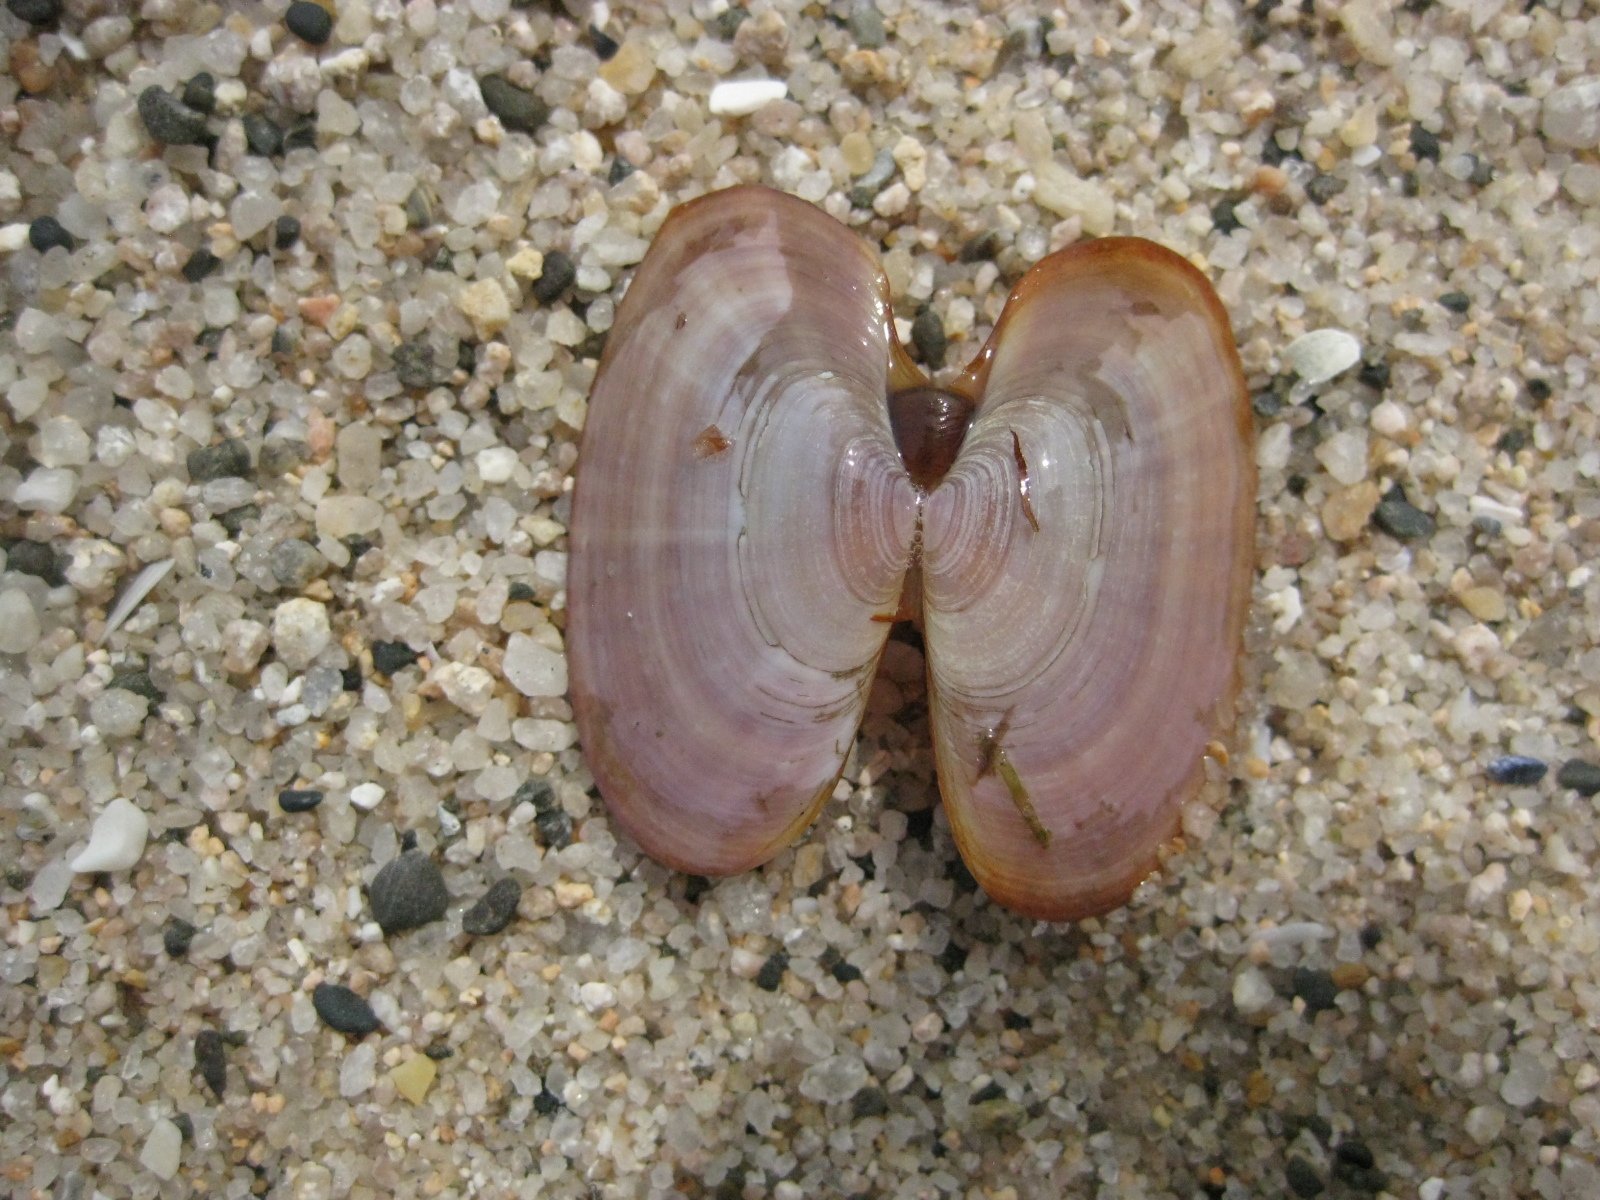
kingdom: Animalia
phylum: Mollusca
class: Bivalvia
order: Cardiida
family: Psammobiidae
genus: Gari
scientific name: Gari stangeri
